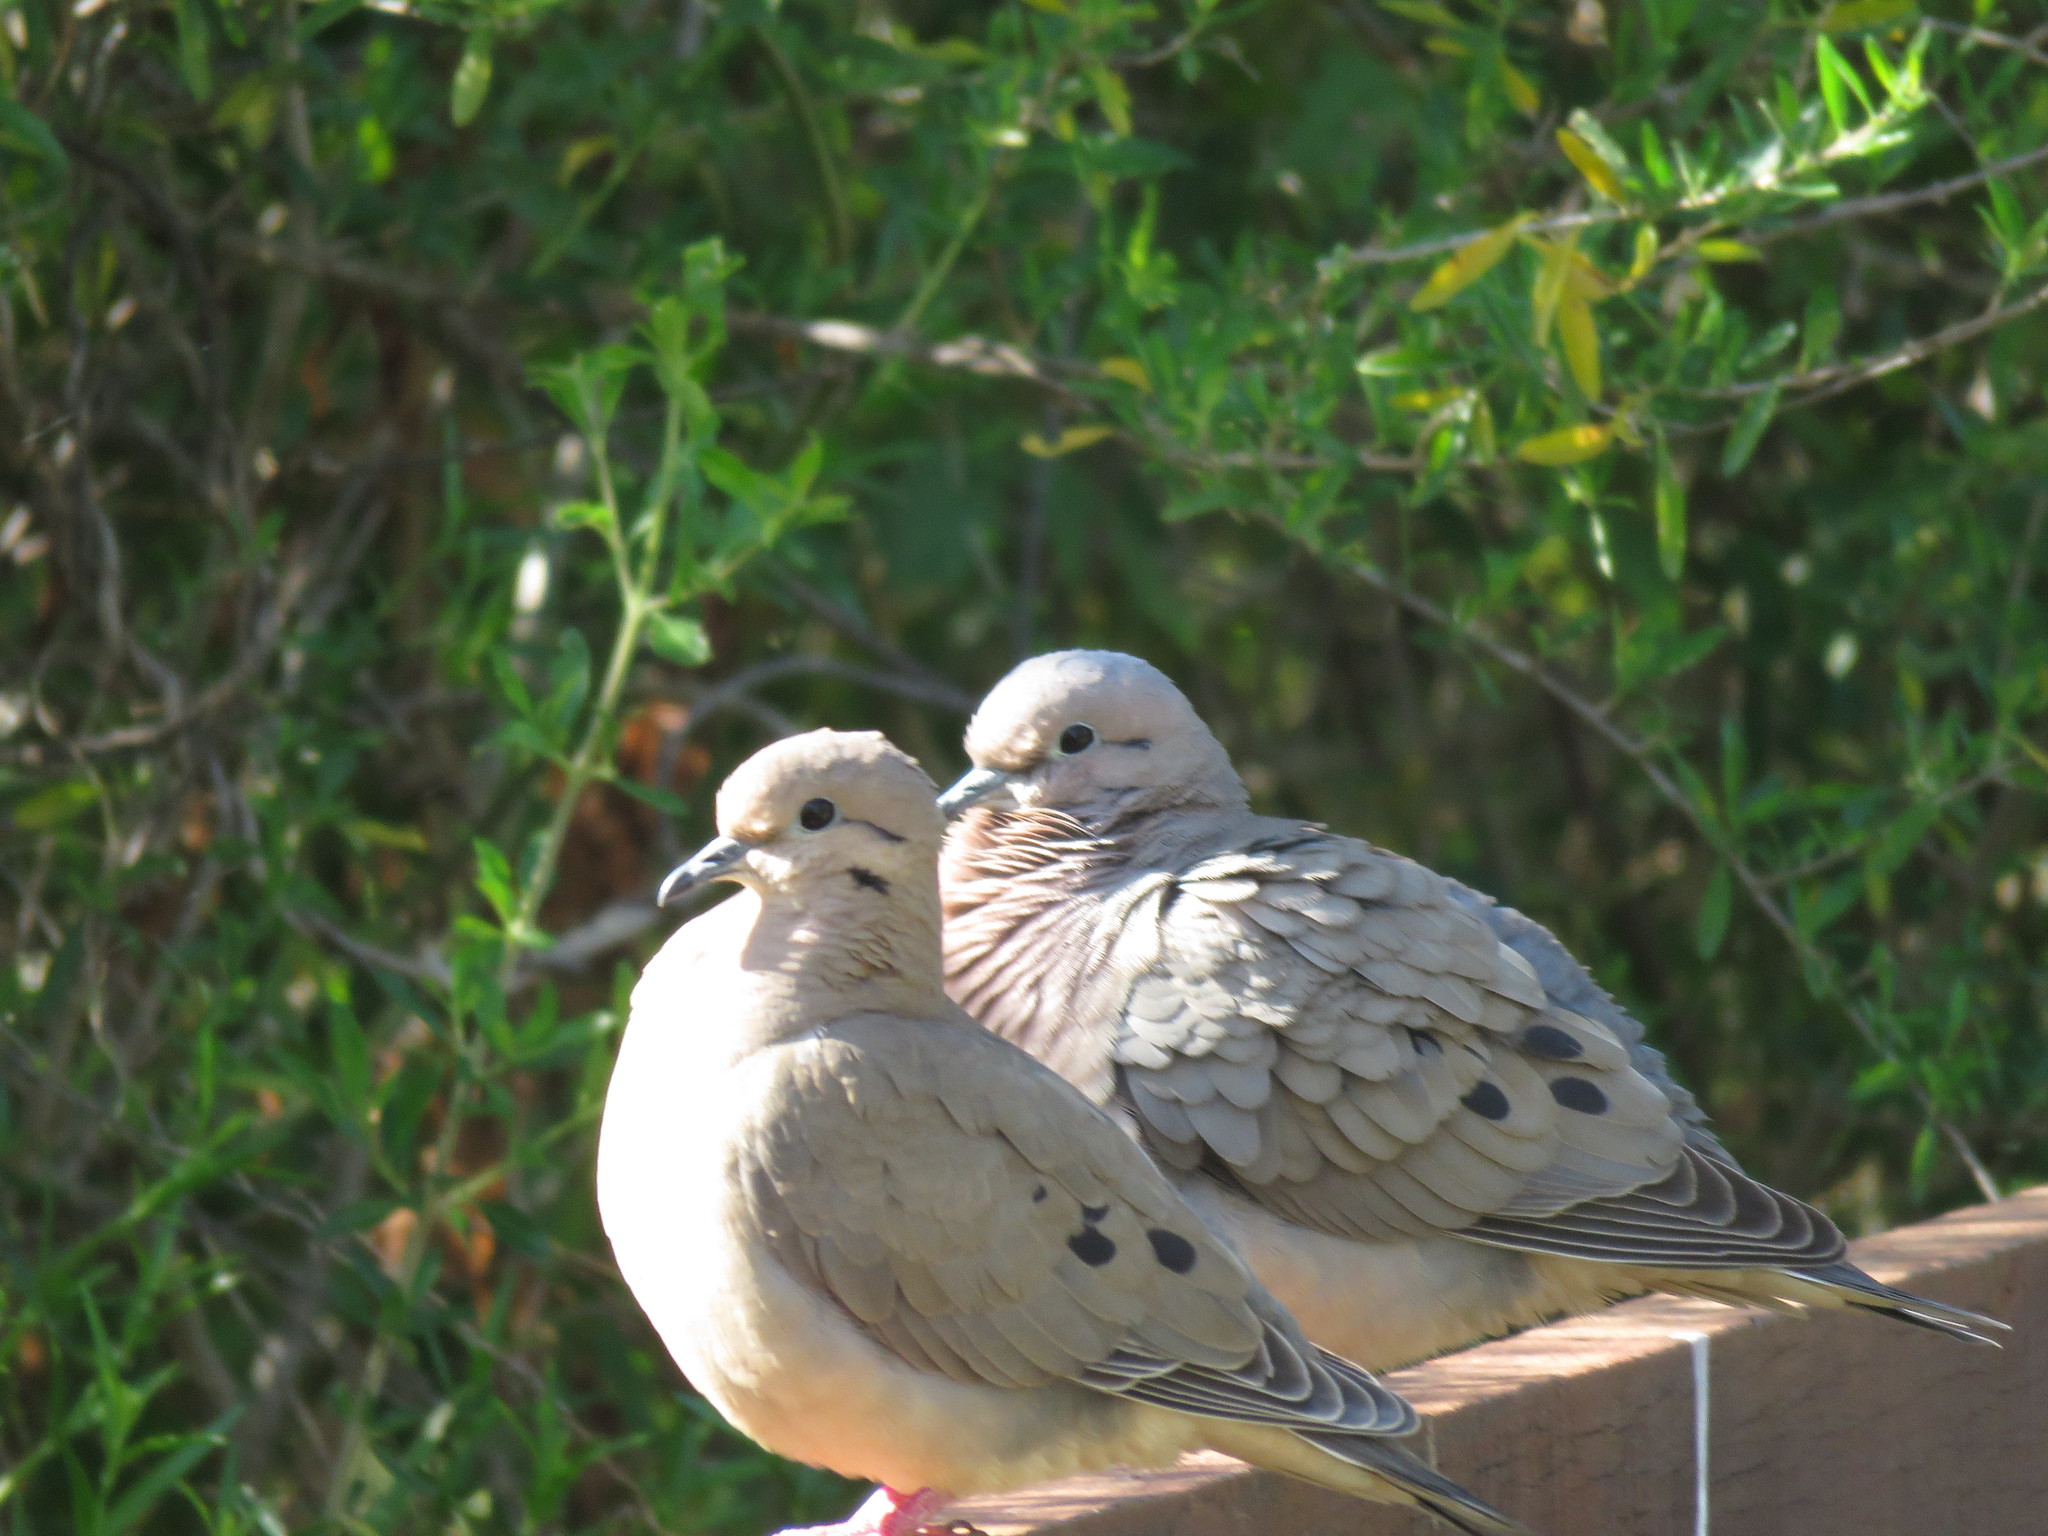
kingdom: Animalia
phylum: Chordata
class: Aves
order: Columbiformes
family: Columbidae
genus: Zenaida
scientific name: Zenaida auriculata
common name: Eared dove
